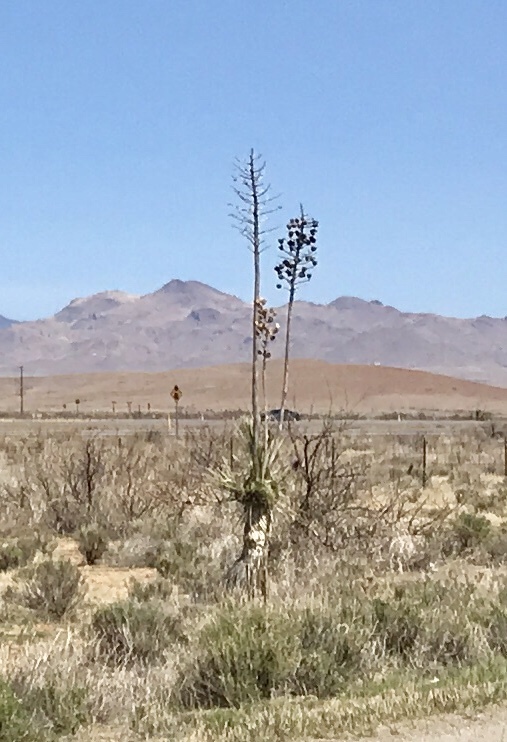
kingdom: Plantae
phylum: Tracheophyta
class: Liliopsida
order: Asparagales
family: Asparagaceae
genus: Yucca
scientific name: Yucca elata
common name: Palmella
